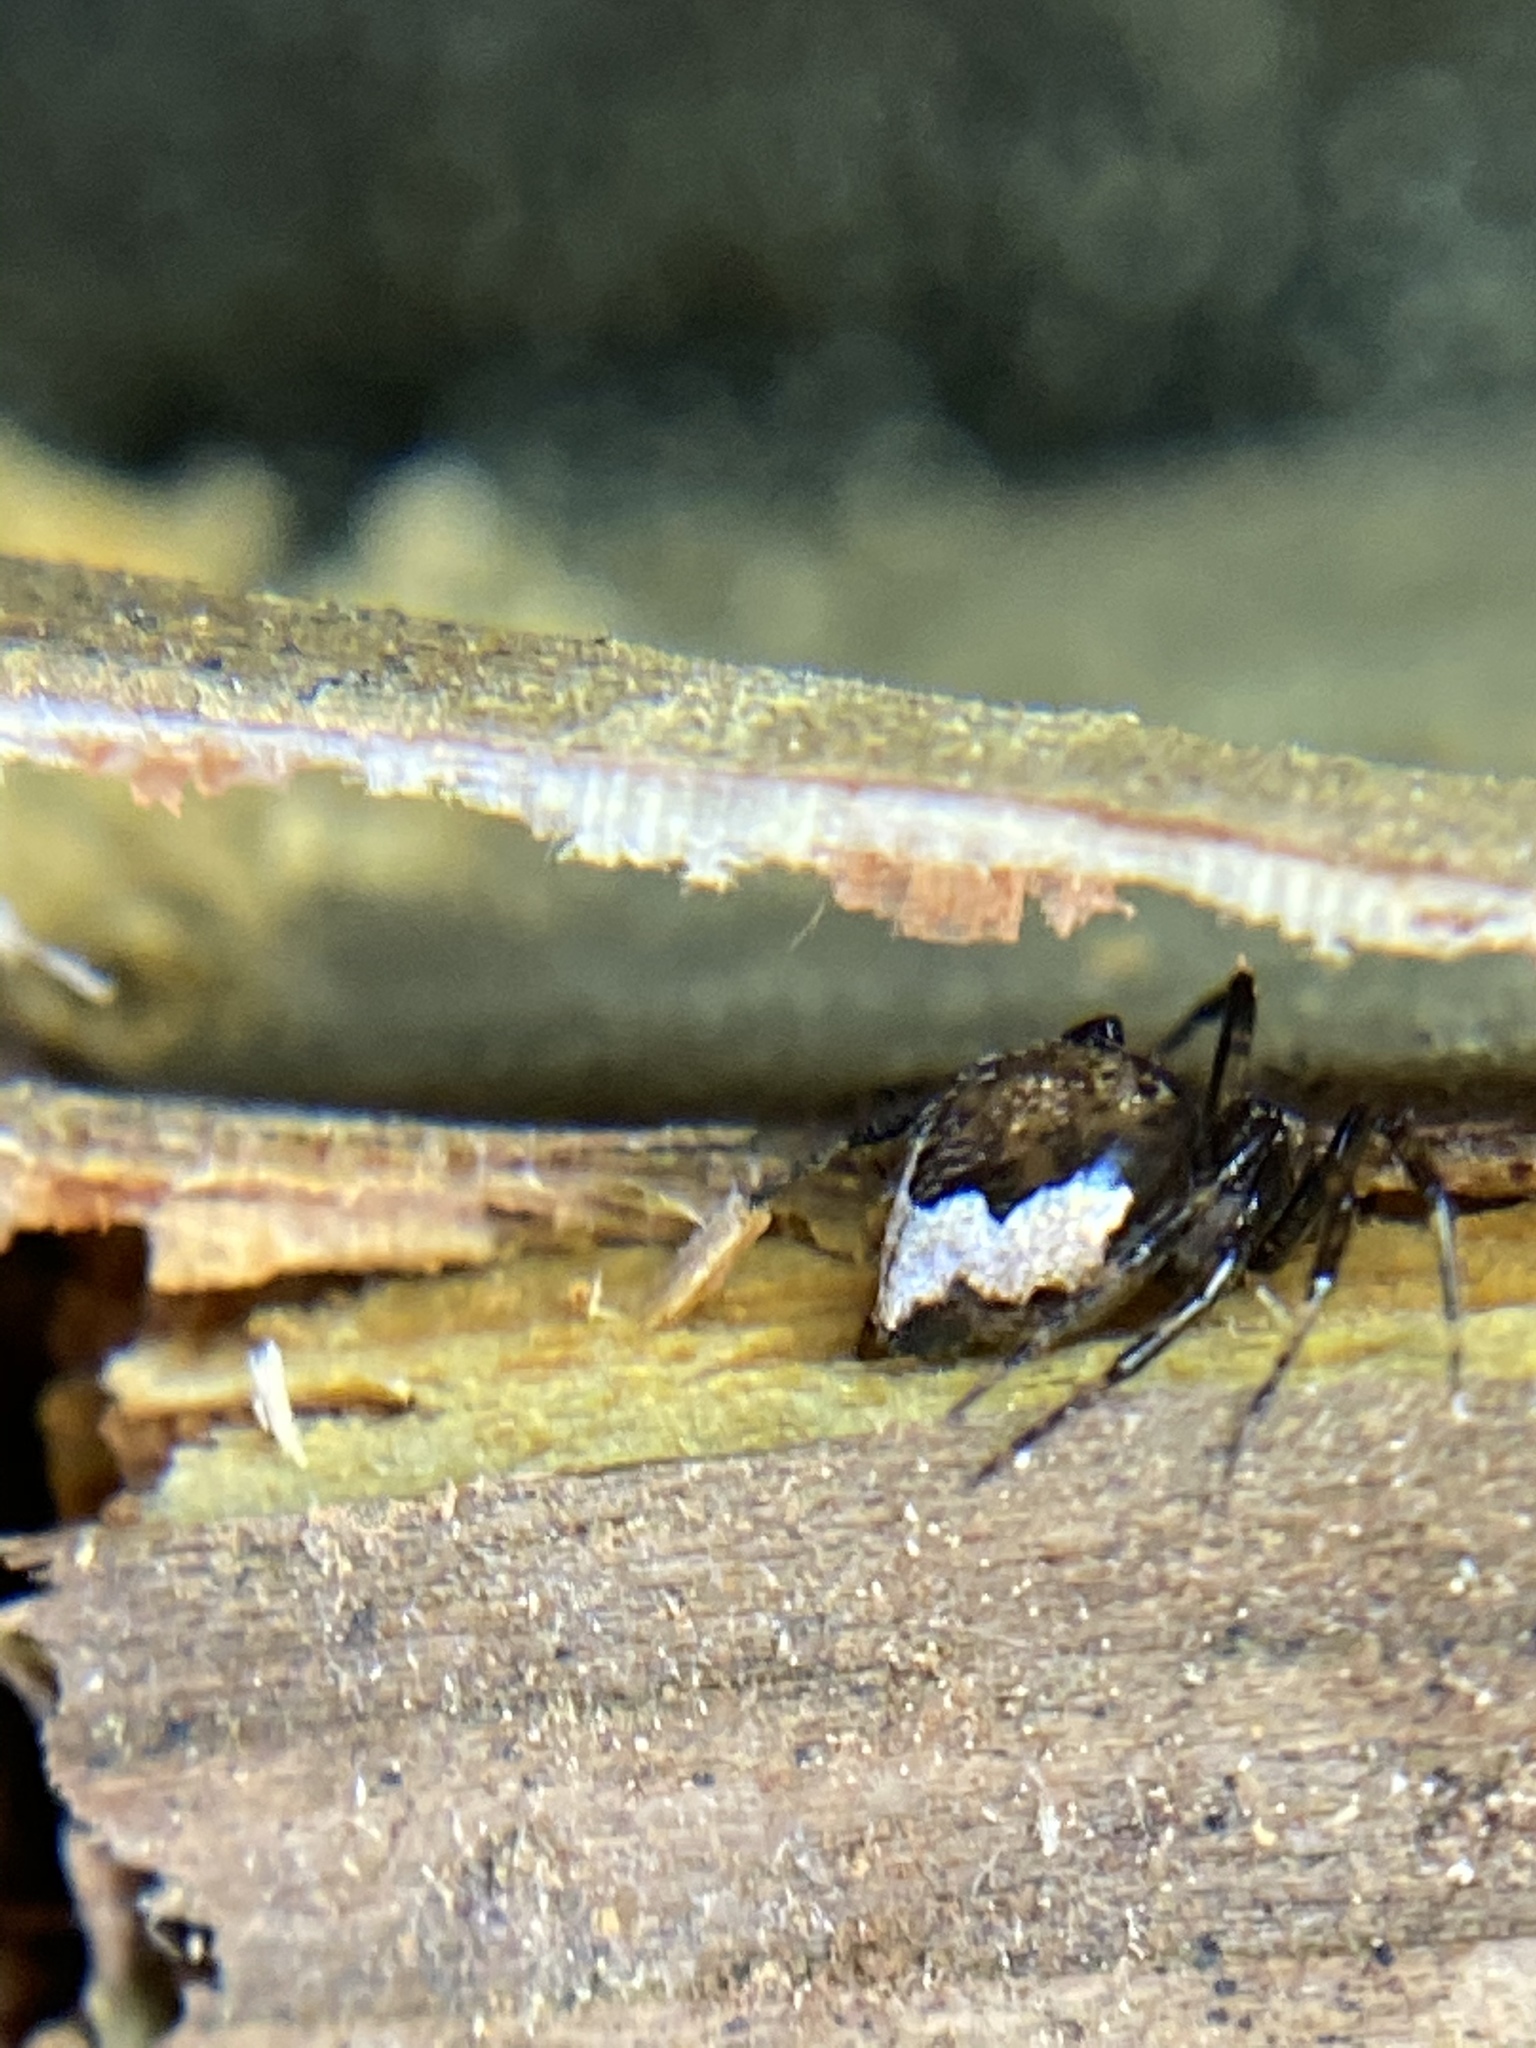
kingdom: Animalia
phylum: Arthropoda
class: Arachnida
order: Araneae
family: Theridiidae
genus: Euryopis
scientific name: Euryopis funebris
